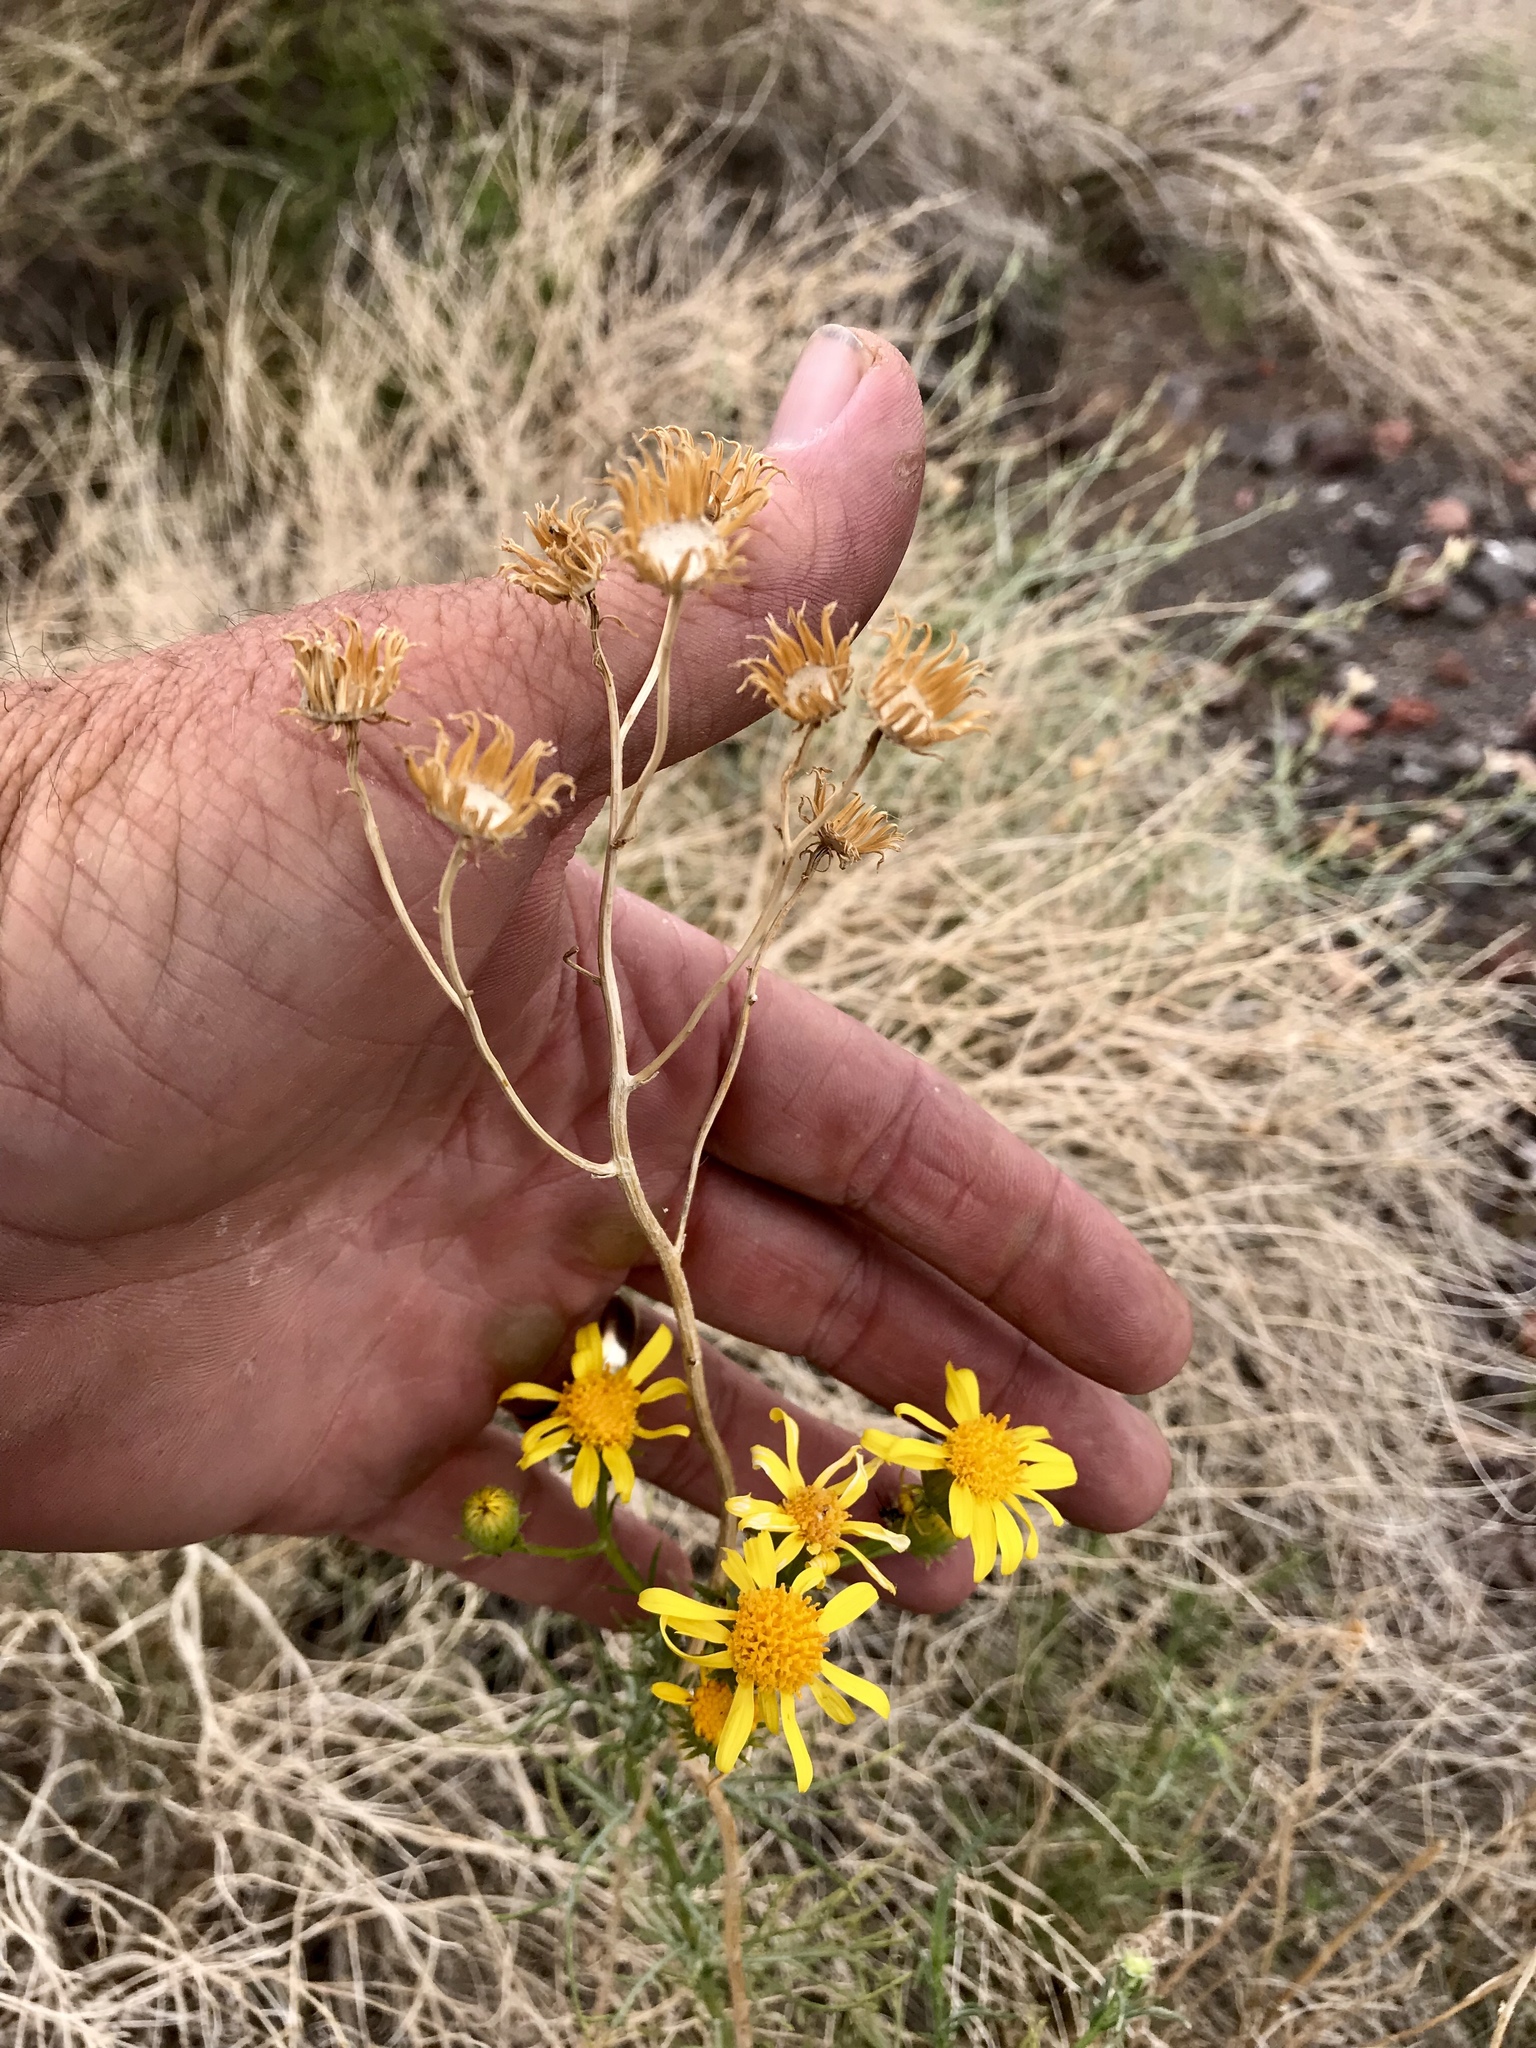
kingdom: Plantae
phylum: Tracheophyta
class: Magnoliopsida
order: Asterales
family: Asteraceae
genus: Senecio
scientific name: Senecio flaccidus
